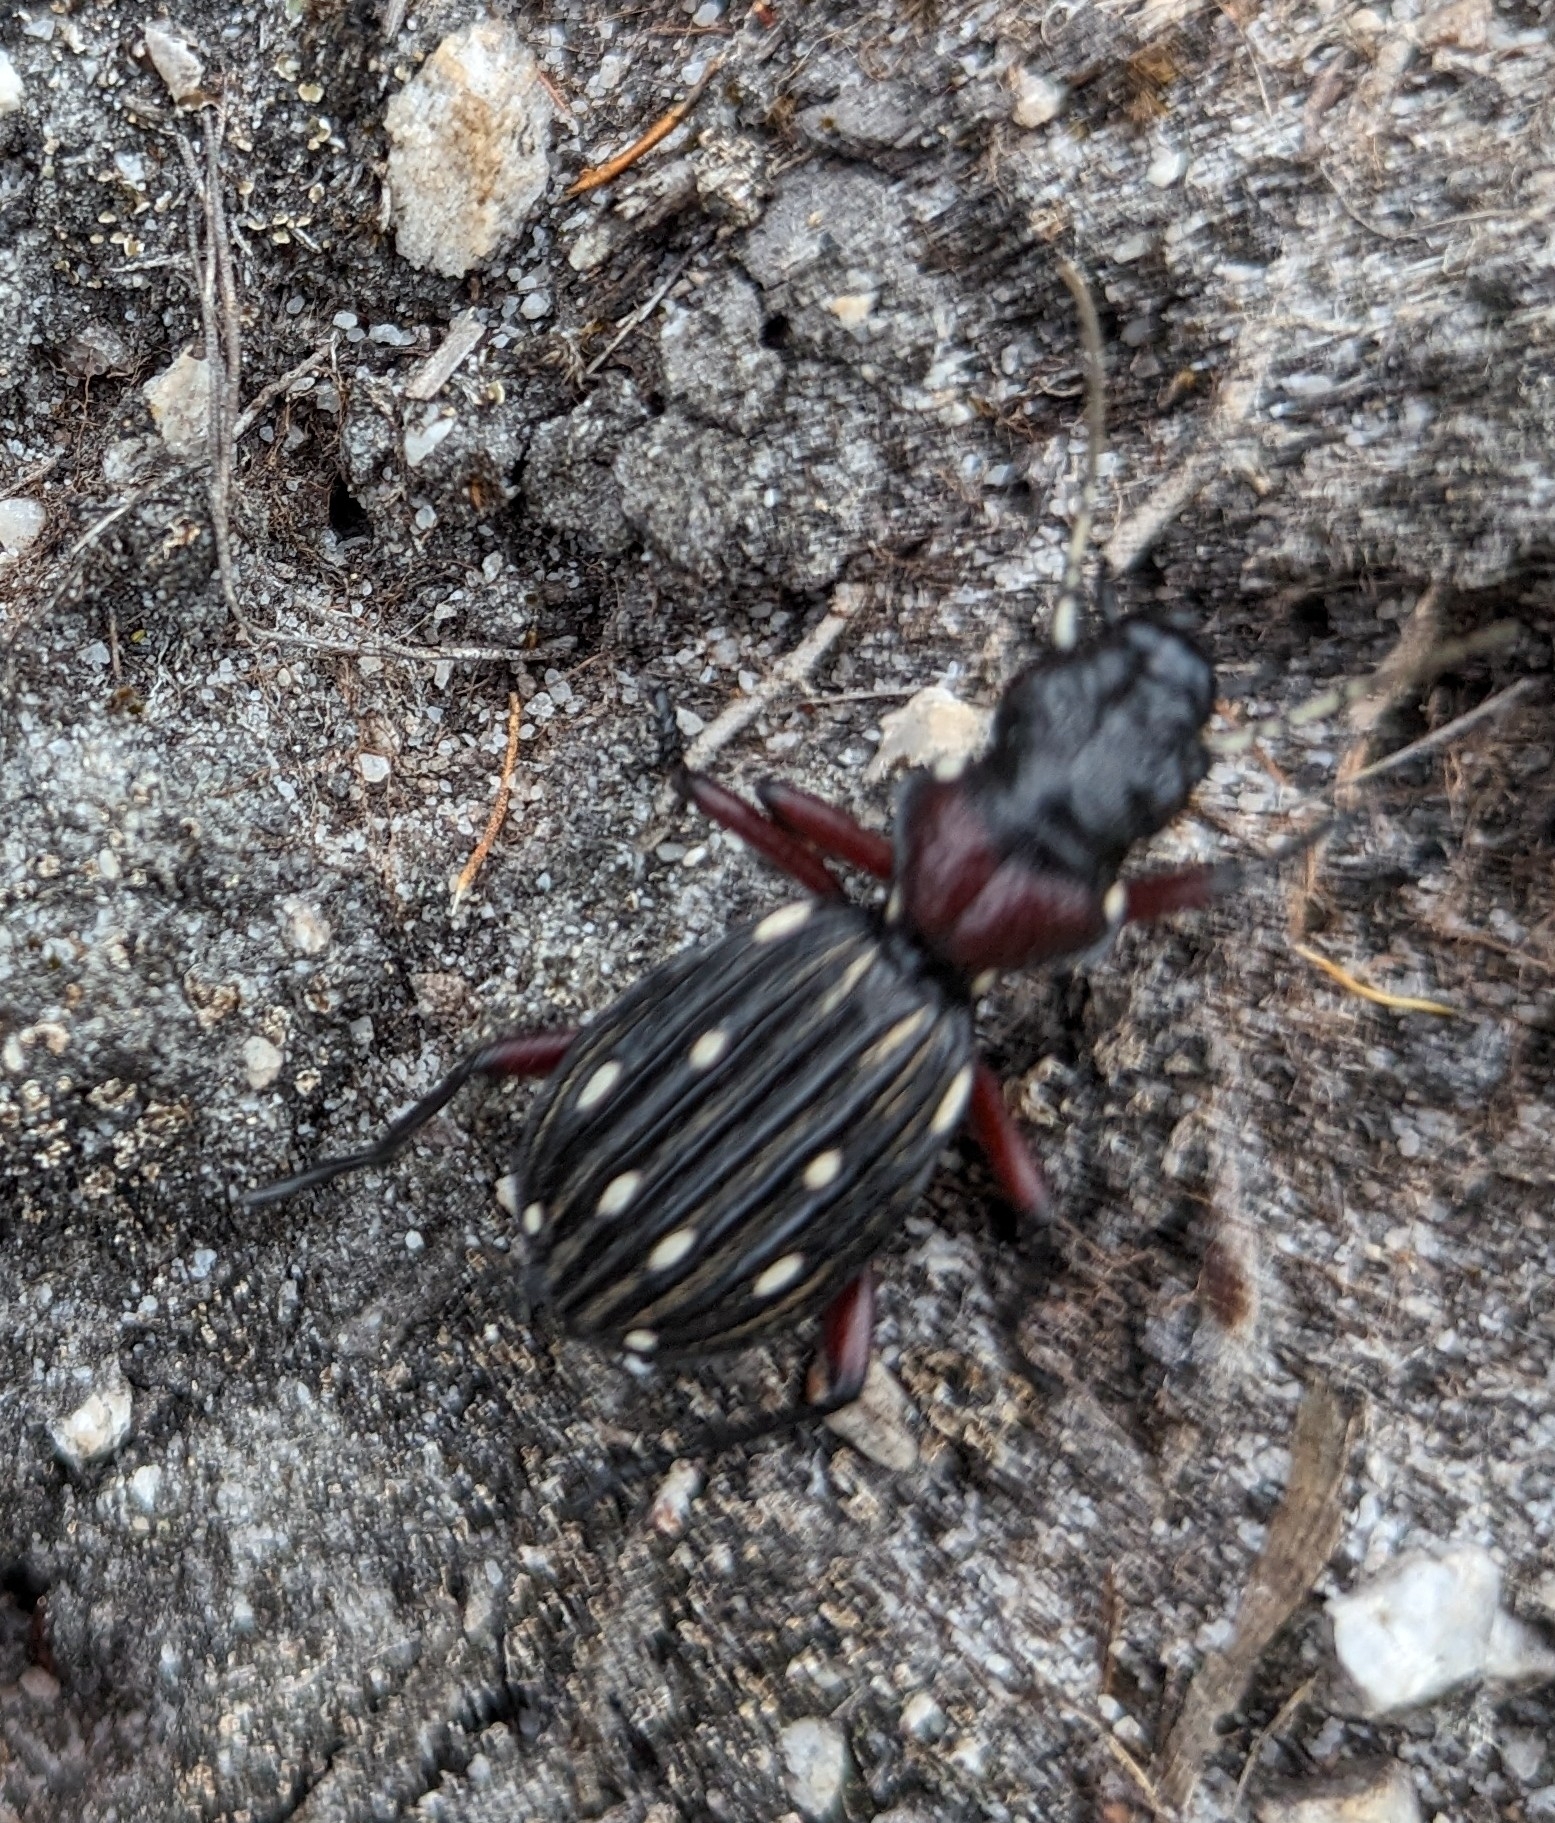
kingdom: Animalia
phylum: Arthropoda
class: Insecta
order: Coleoptera
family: Carabidae
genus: Anthia
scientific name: Anthia decemguttata
